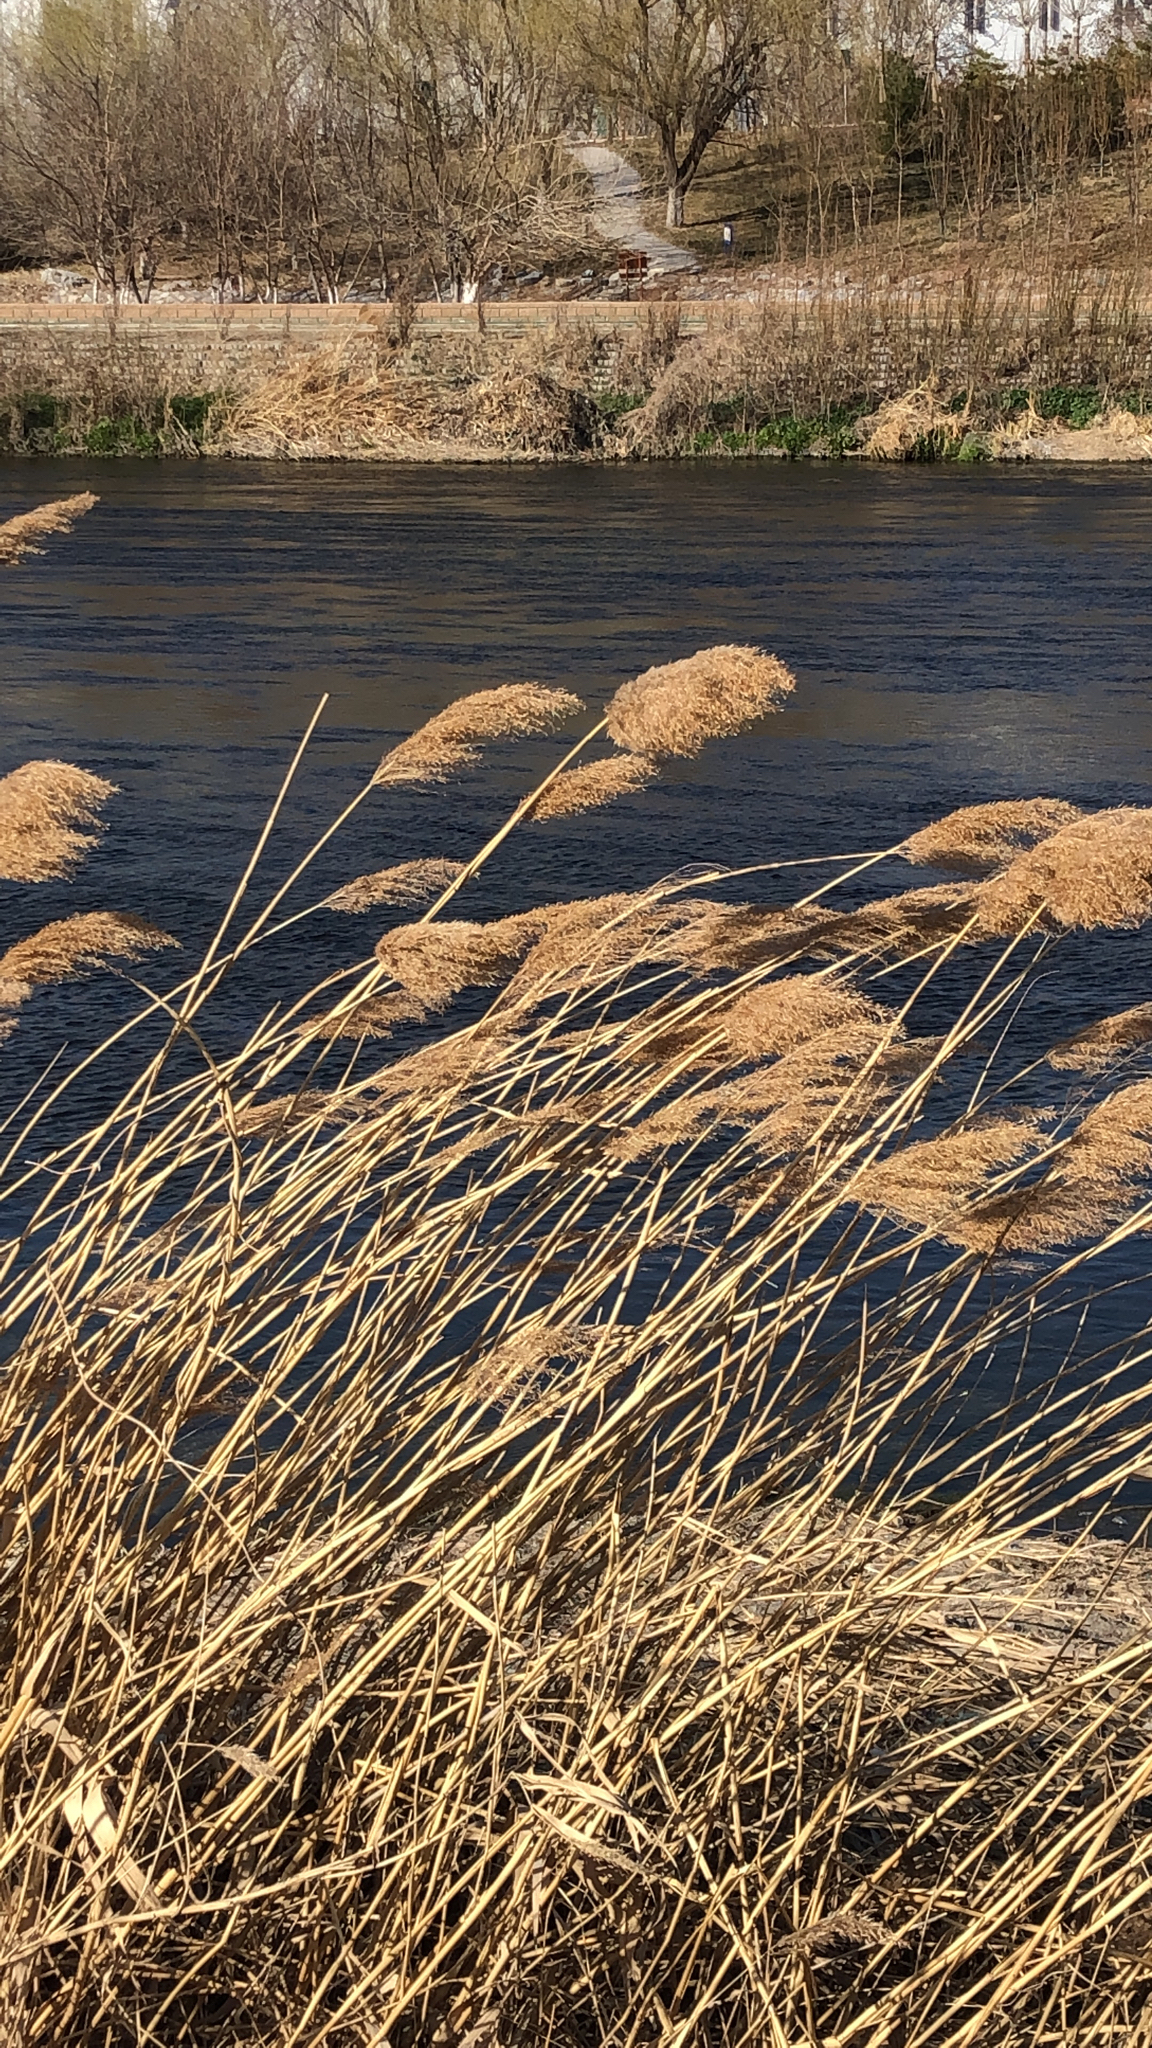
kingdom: Plantae
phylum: Tracheophyta
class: Liliopsida
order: Poales
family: Poaceae
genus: Phragmites
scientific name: Phragmites australis
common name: Common reed
